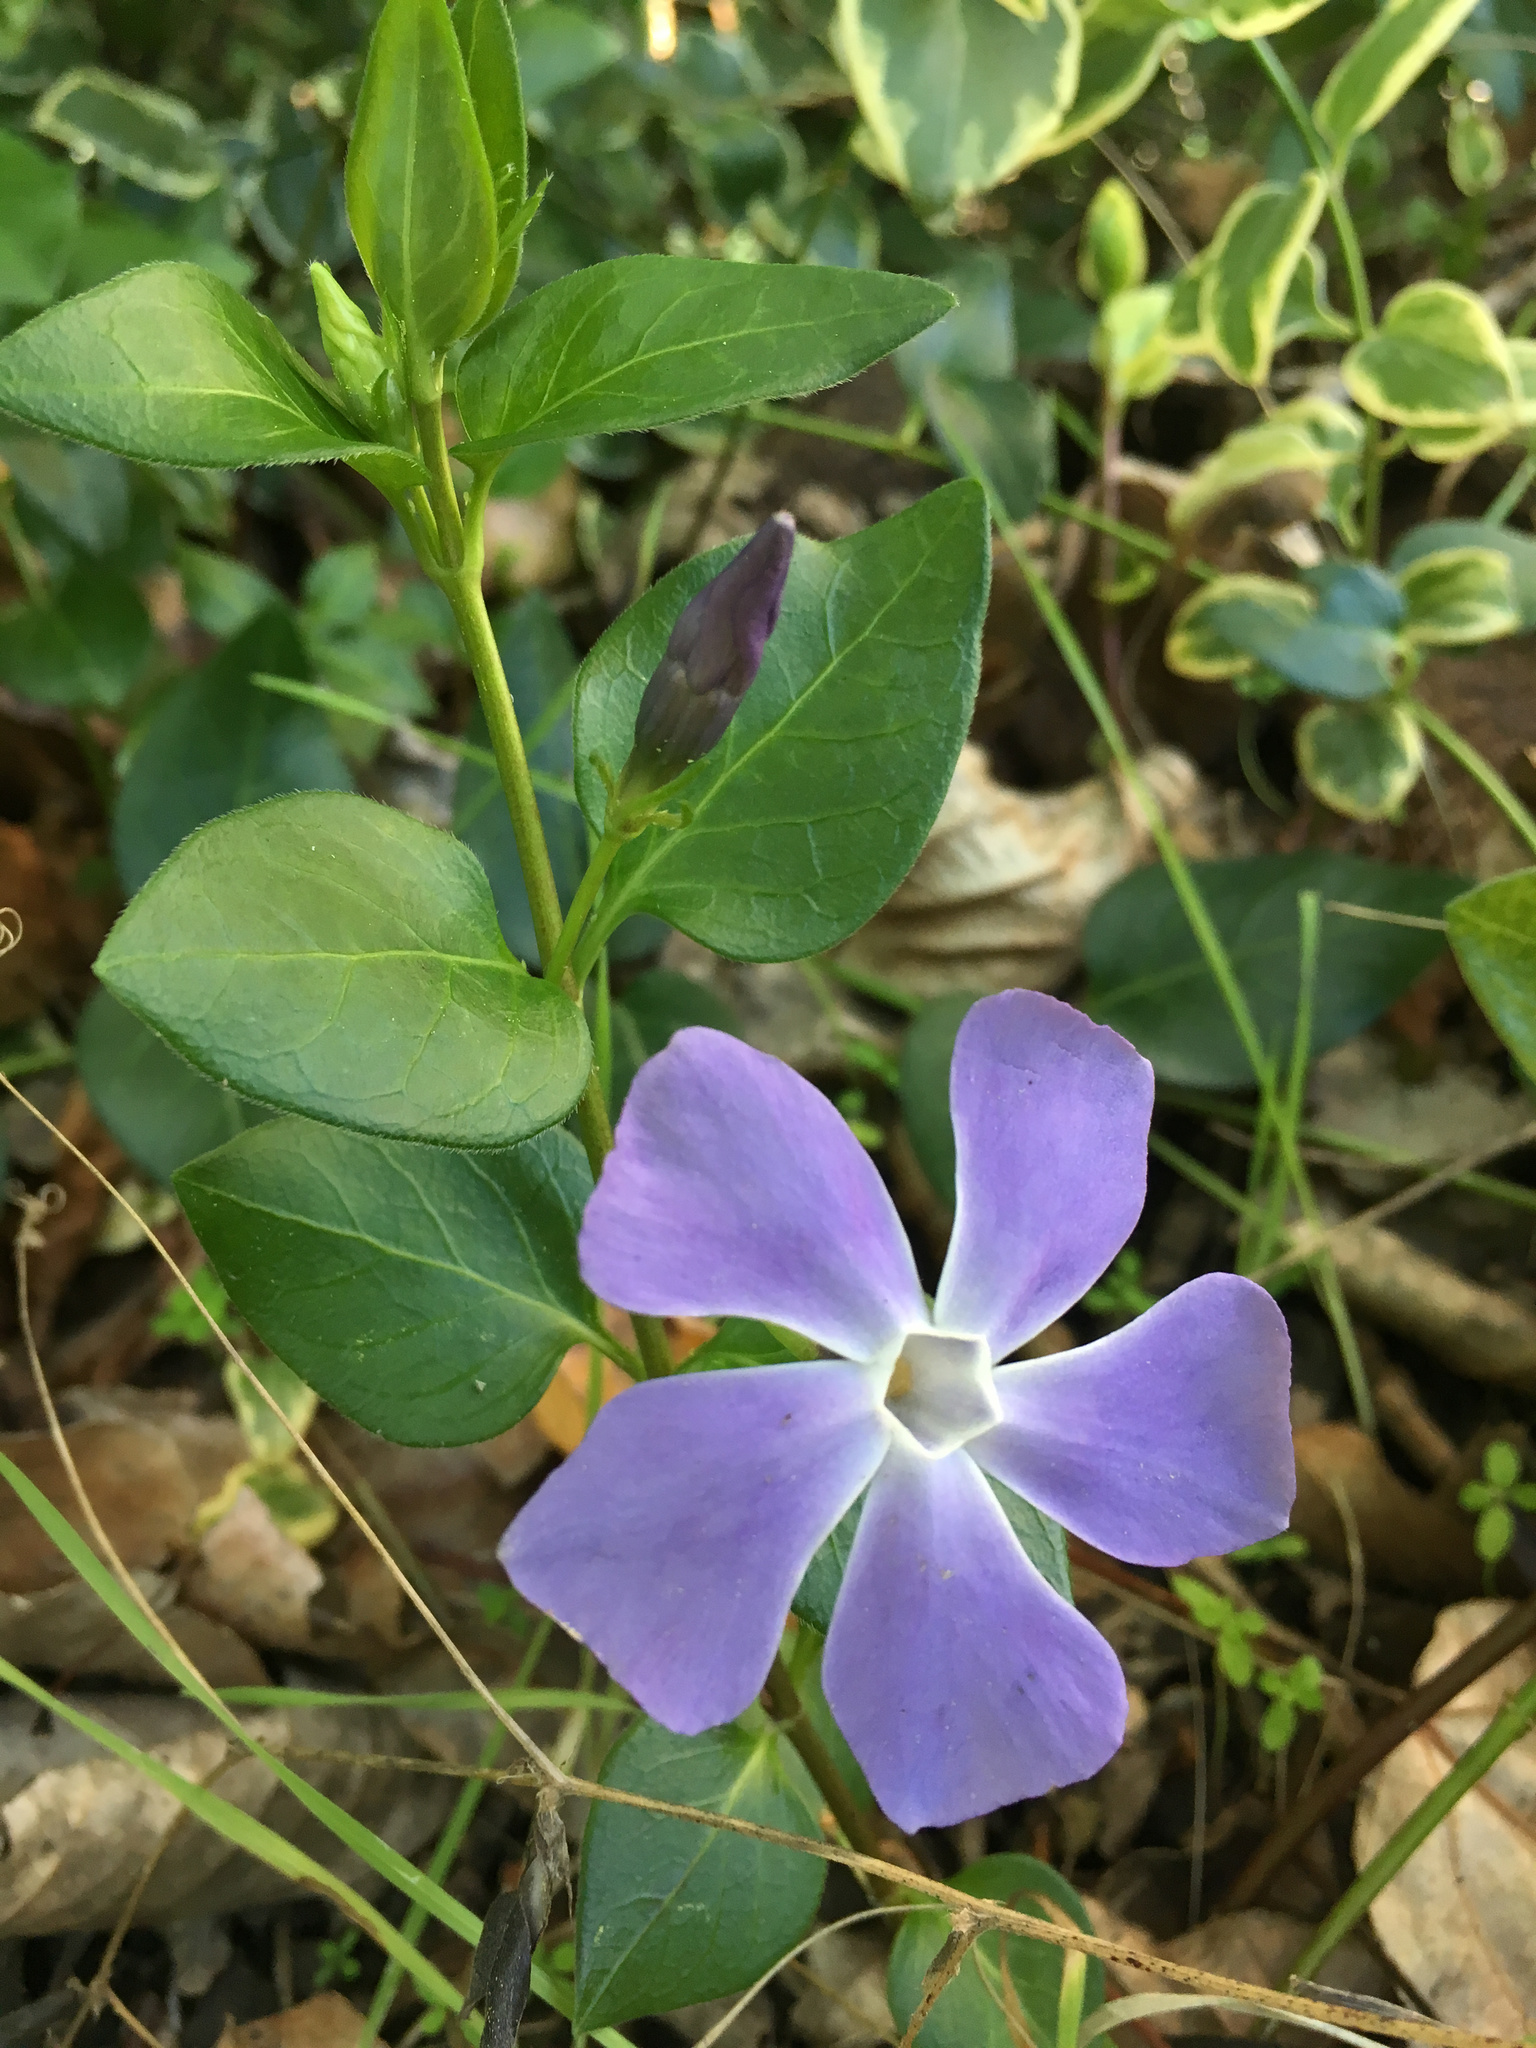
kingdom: Plantae
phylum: Tracheophyta
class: Magnoliopsida
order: Gentianales
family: Apocynaceae
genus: Vinca
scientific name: Vinca major
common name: Greater periwinkle
